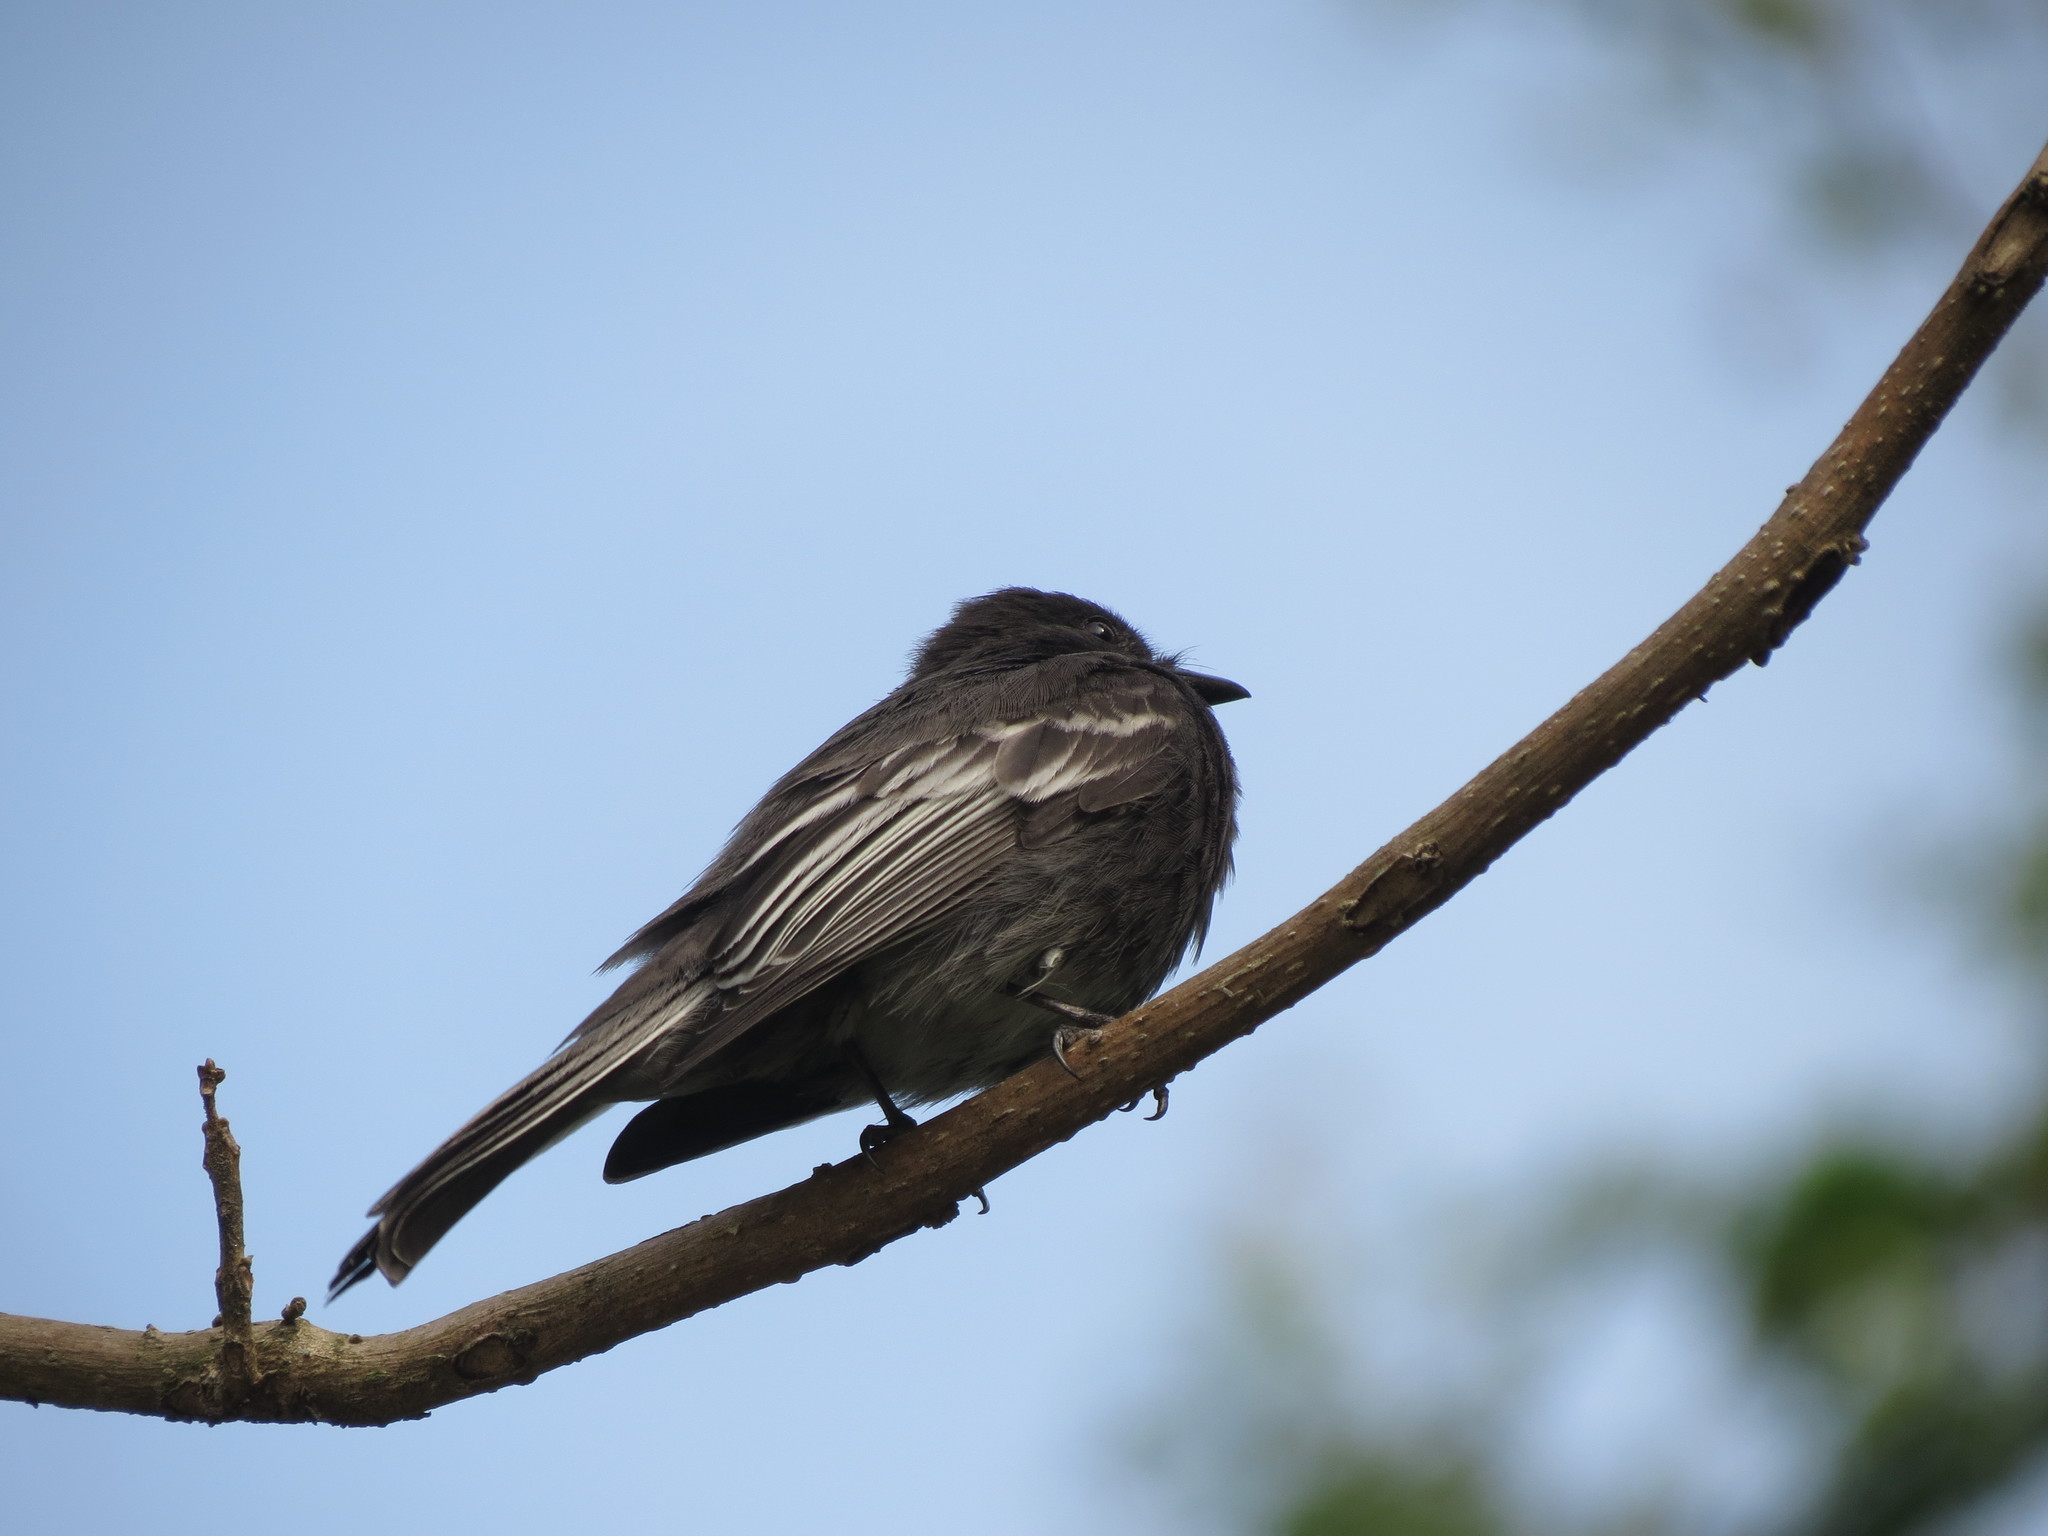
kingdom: Animalia
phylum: Chordata
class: Aves
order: Passeriformes
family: Tyrannidae
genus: Sayornis
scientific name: Sayornis nigricans
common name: Black phoebe
